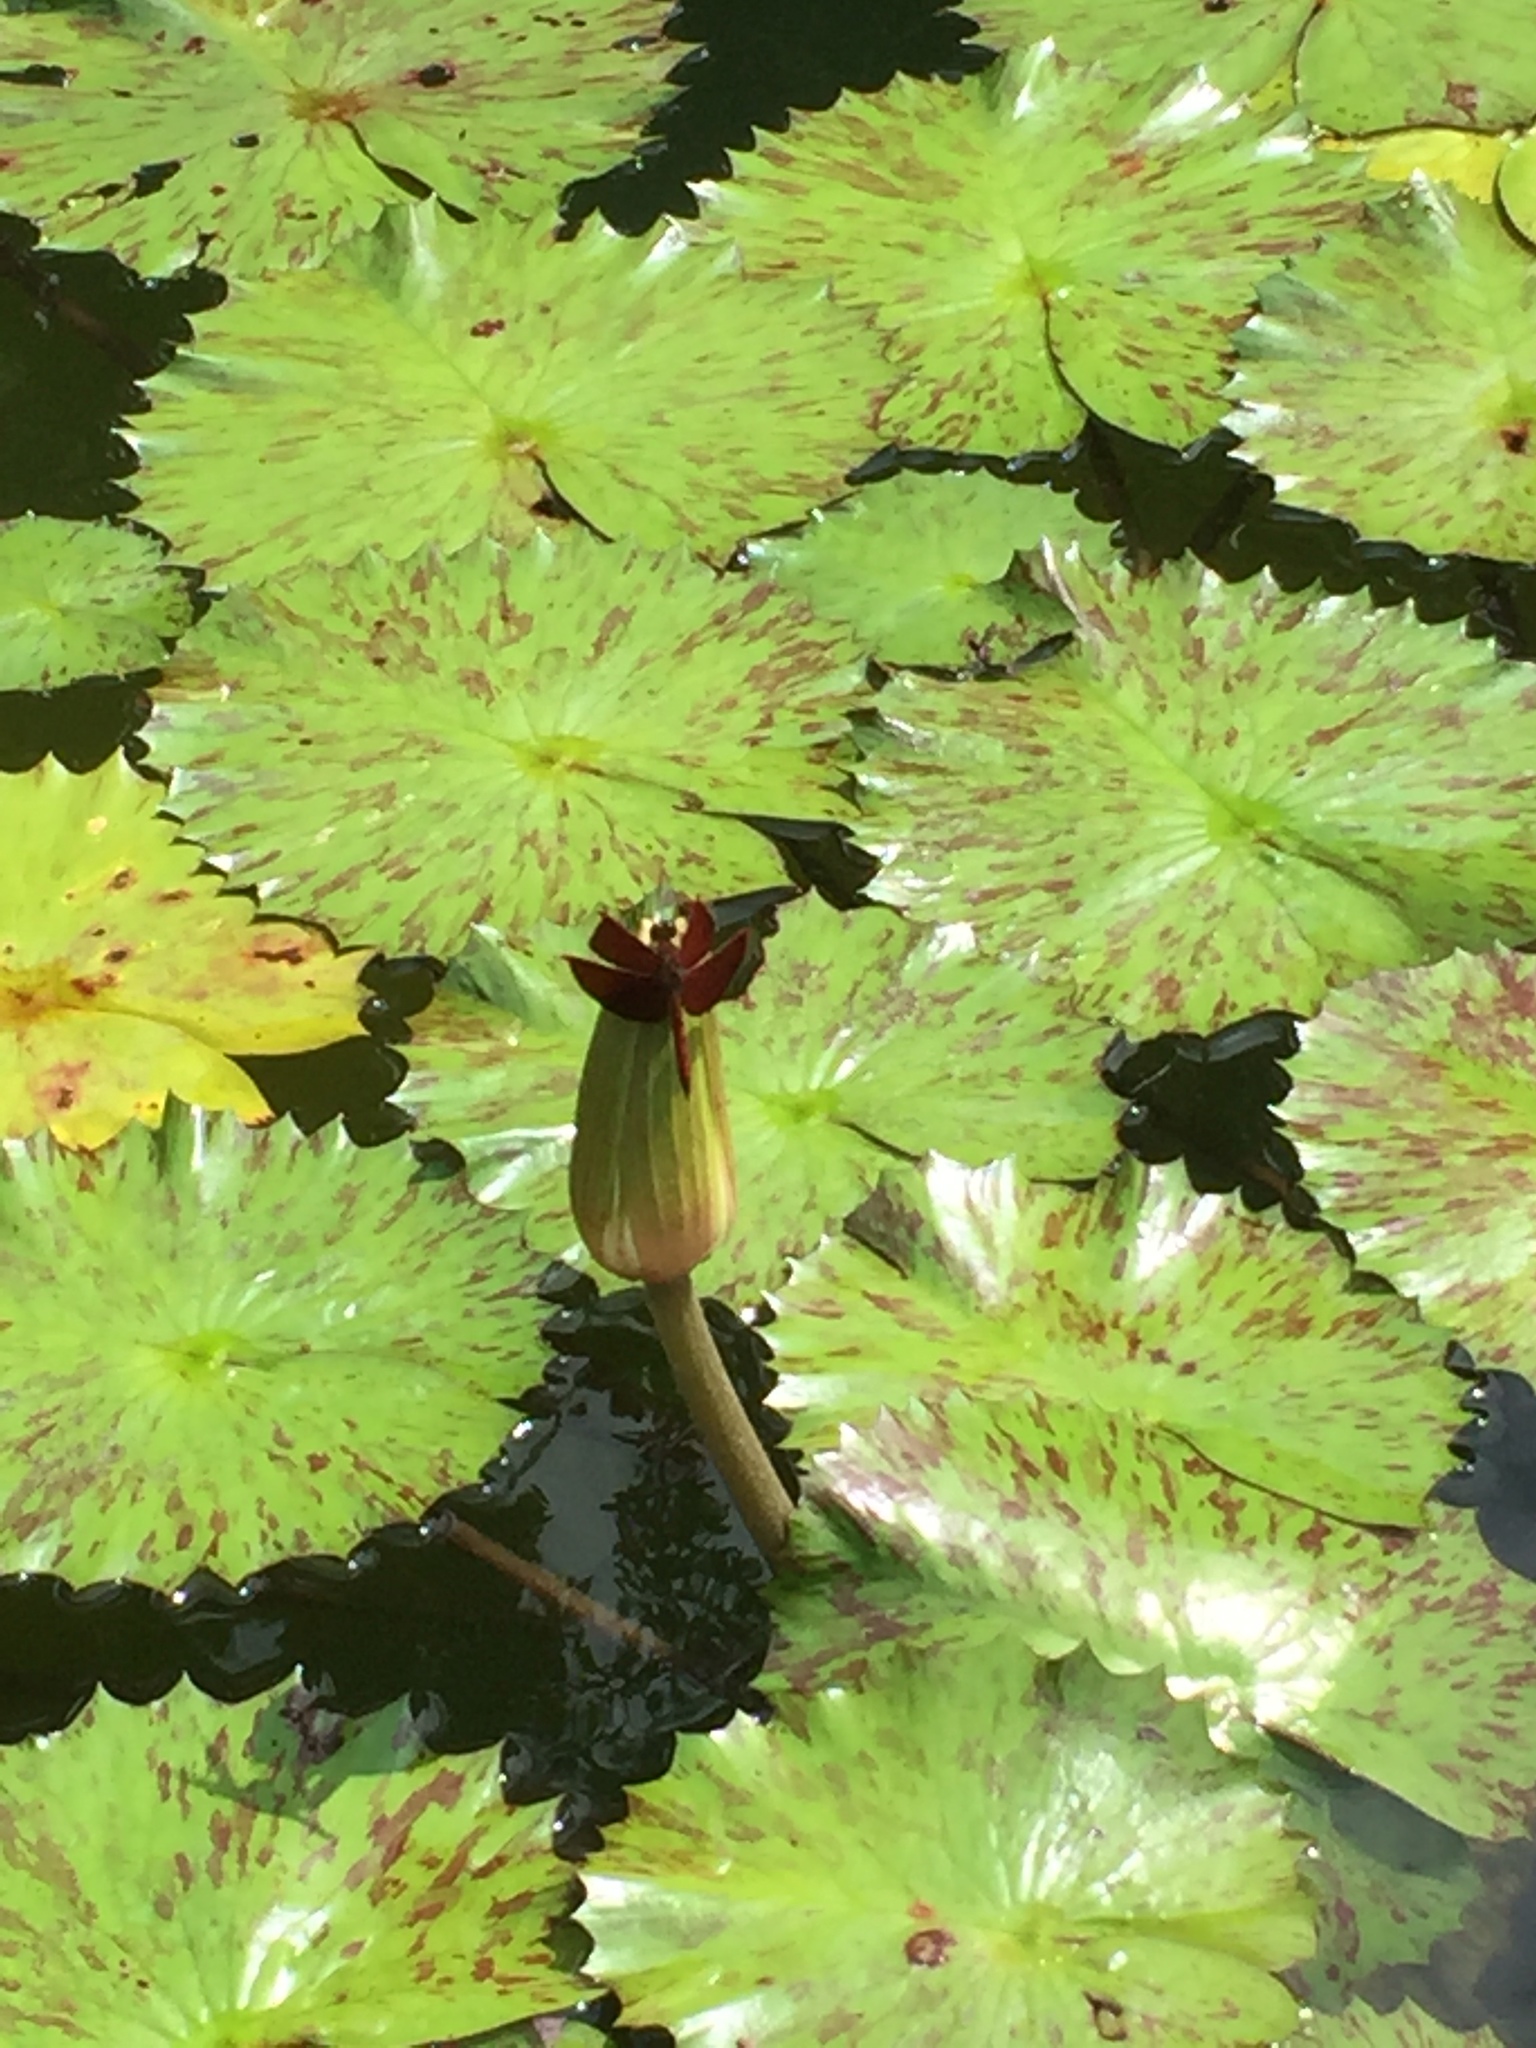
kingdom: Animalia
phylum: Arthropoda
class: Insecta
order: Odonata
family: Libellulidae
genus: Neurothemis
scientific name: Neurothemis fluctuans
